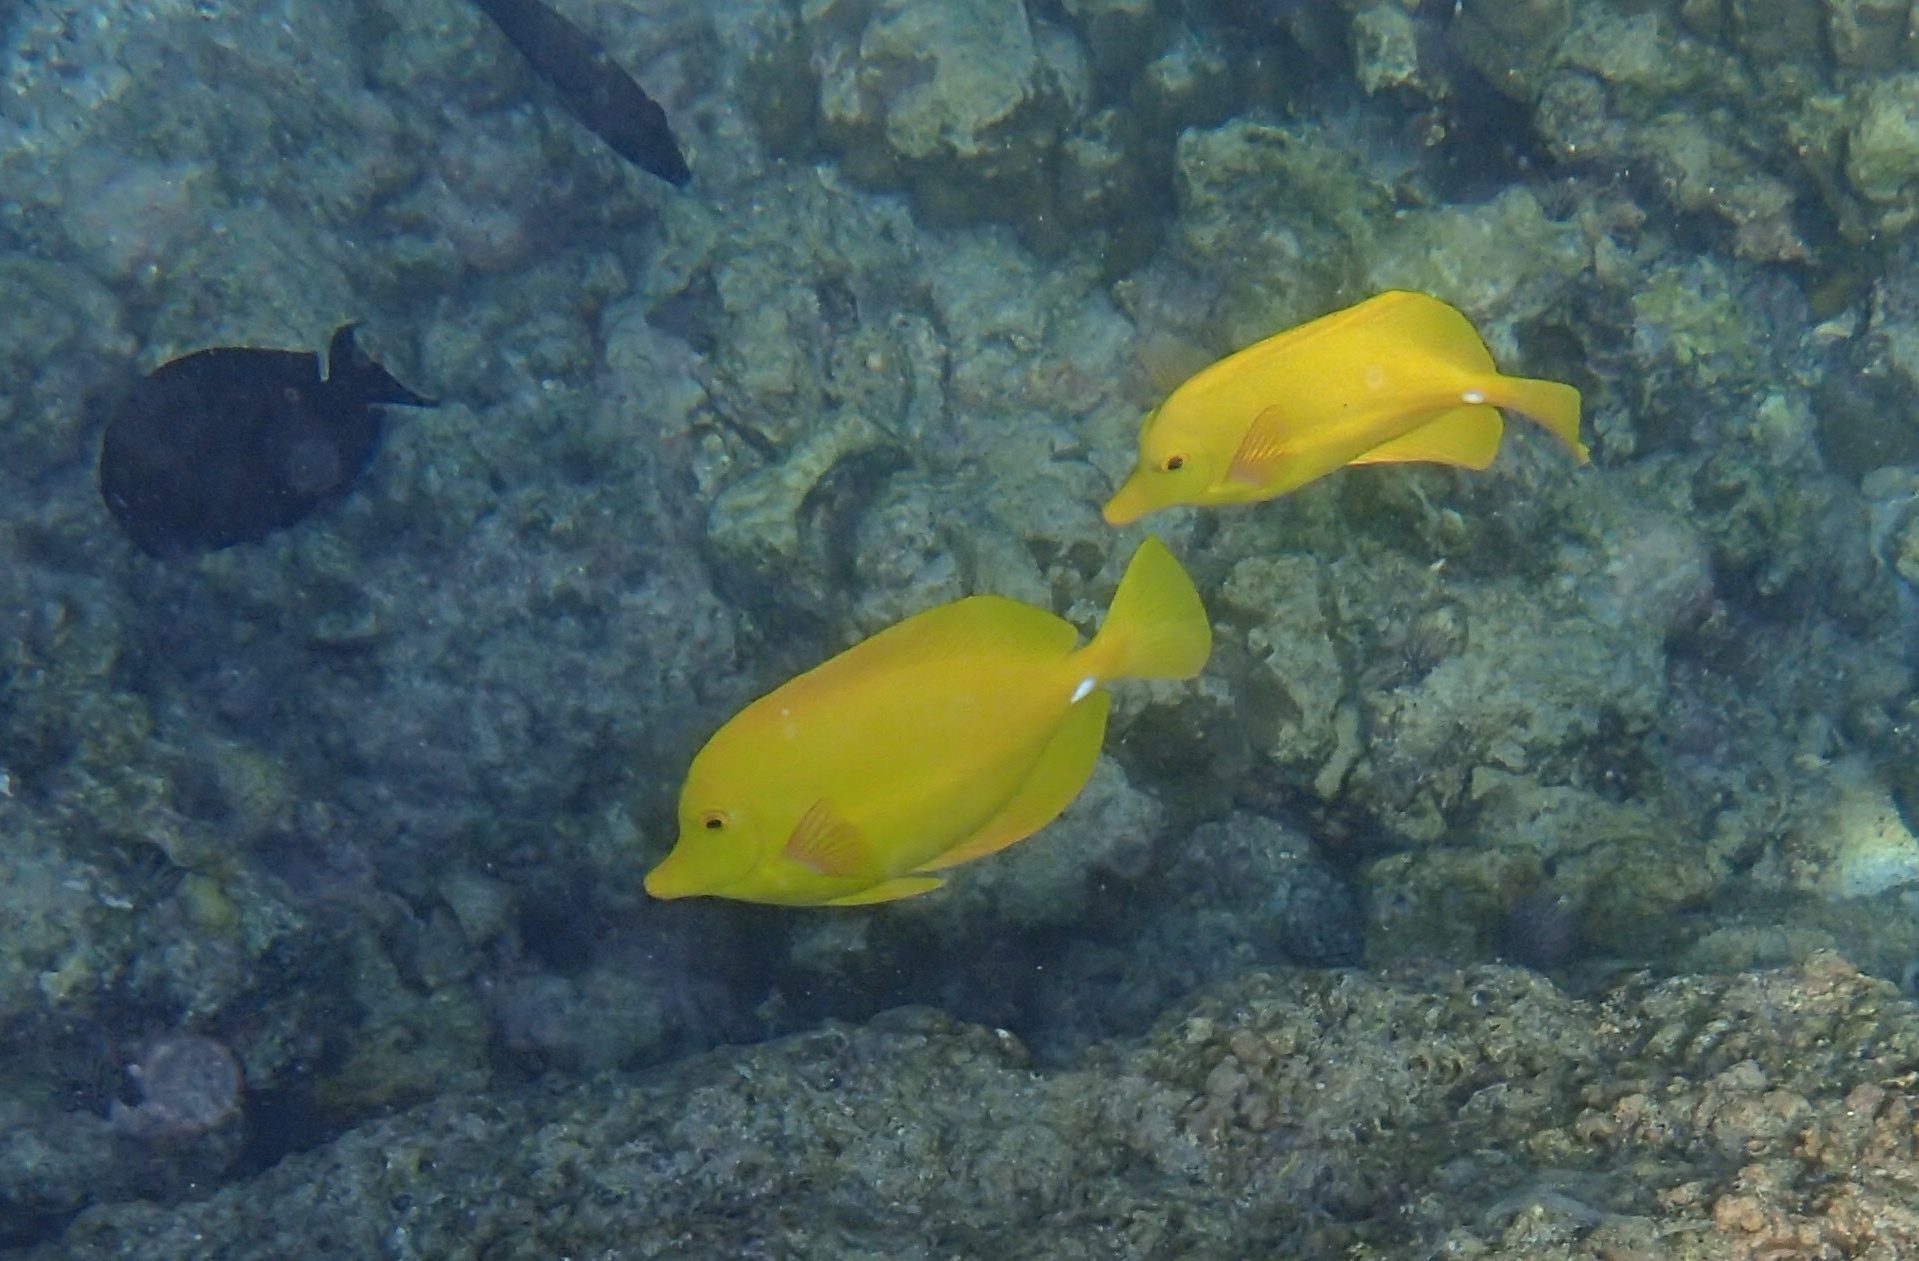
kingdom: Animalia
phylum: Chordata
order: Perciformes
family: Acanthuridae
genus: Zebrasoma
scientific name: Zebrasoma flavescens
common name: Yellow tang
